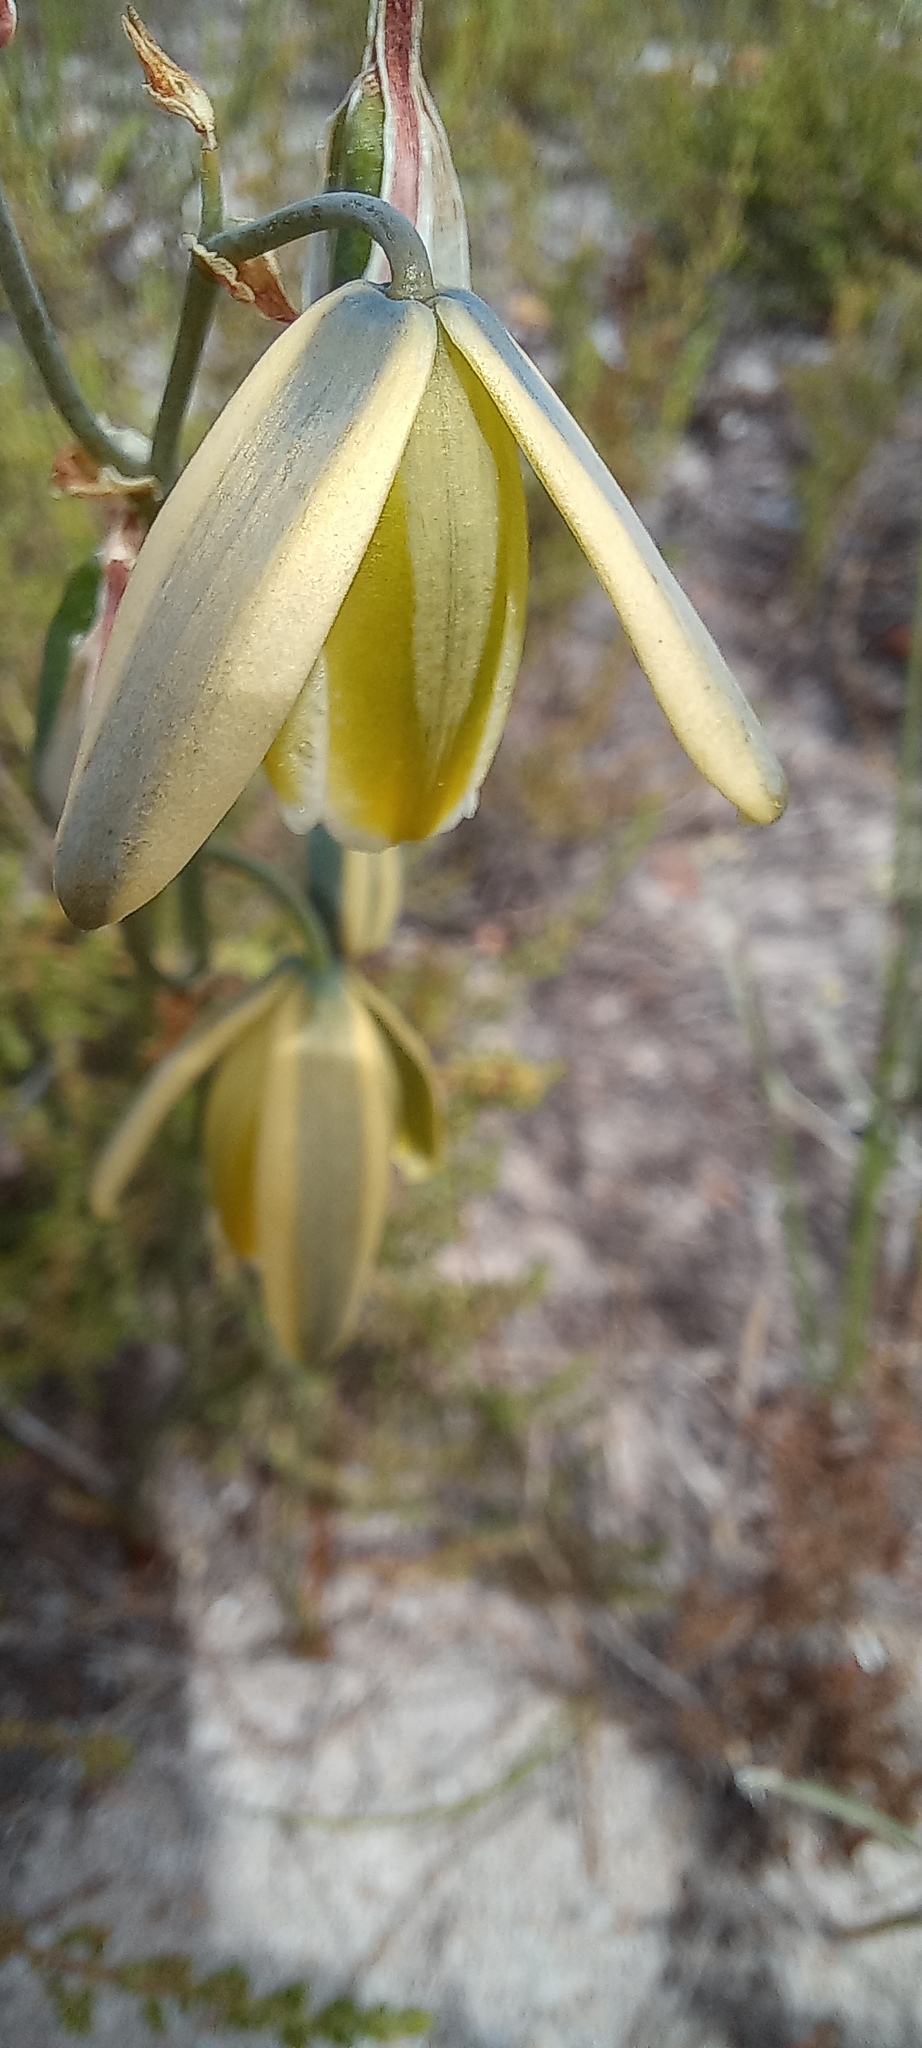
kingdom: Plantae
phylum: Tracheophyta
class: Liliopsida
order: Asparagales
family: Asparagaceae
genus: Albuca
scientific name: Albuca cooperi
